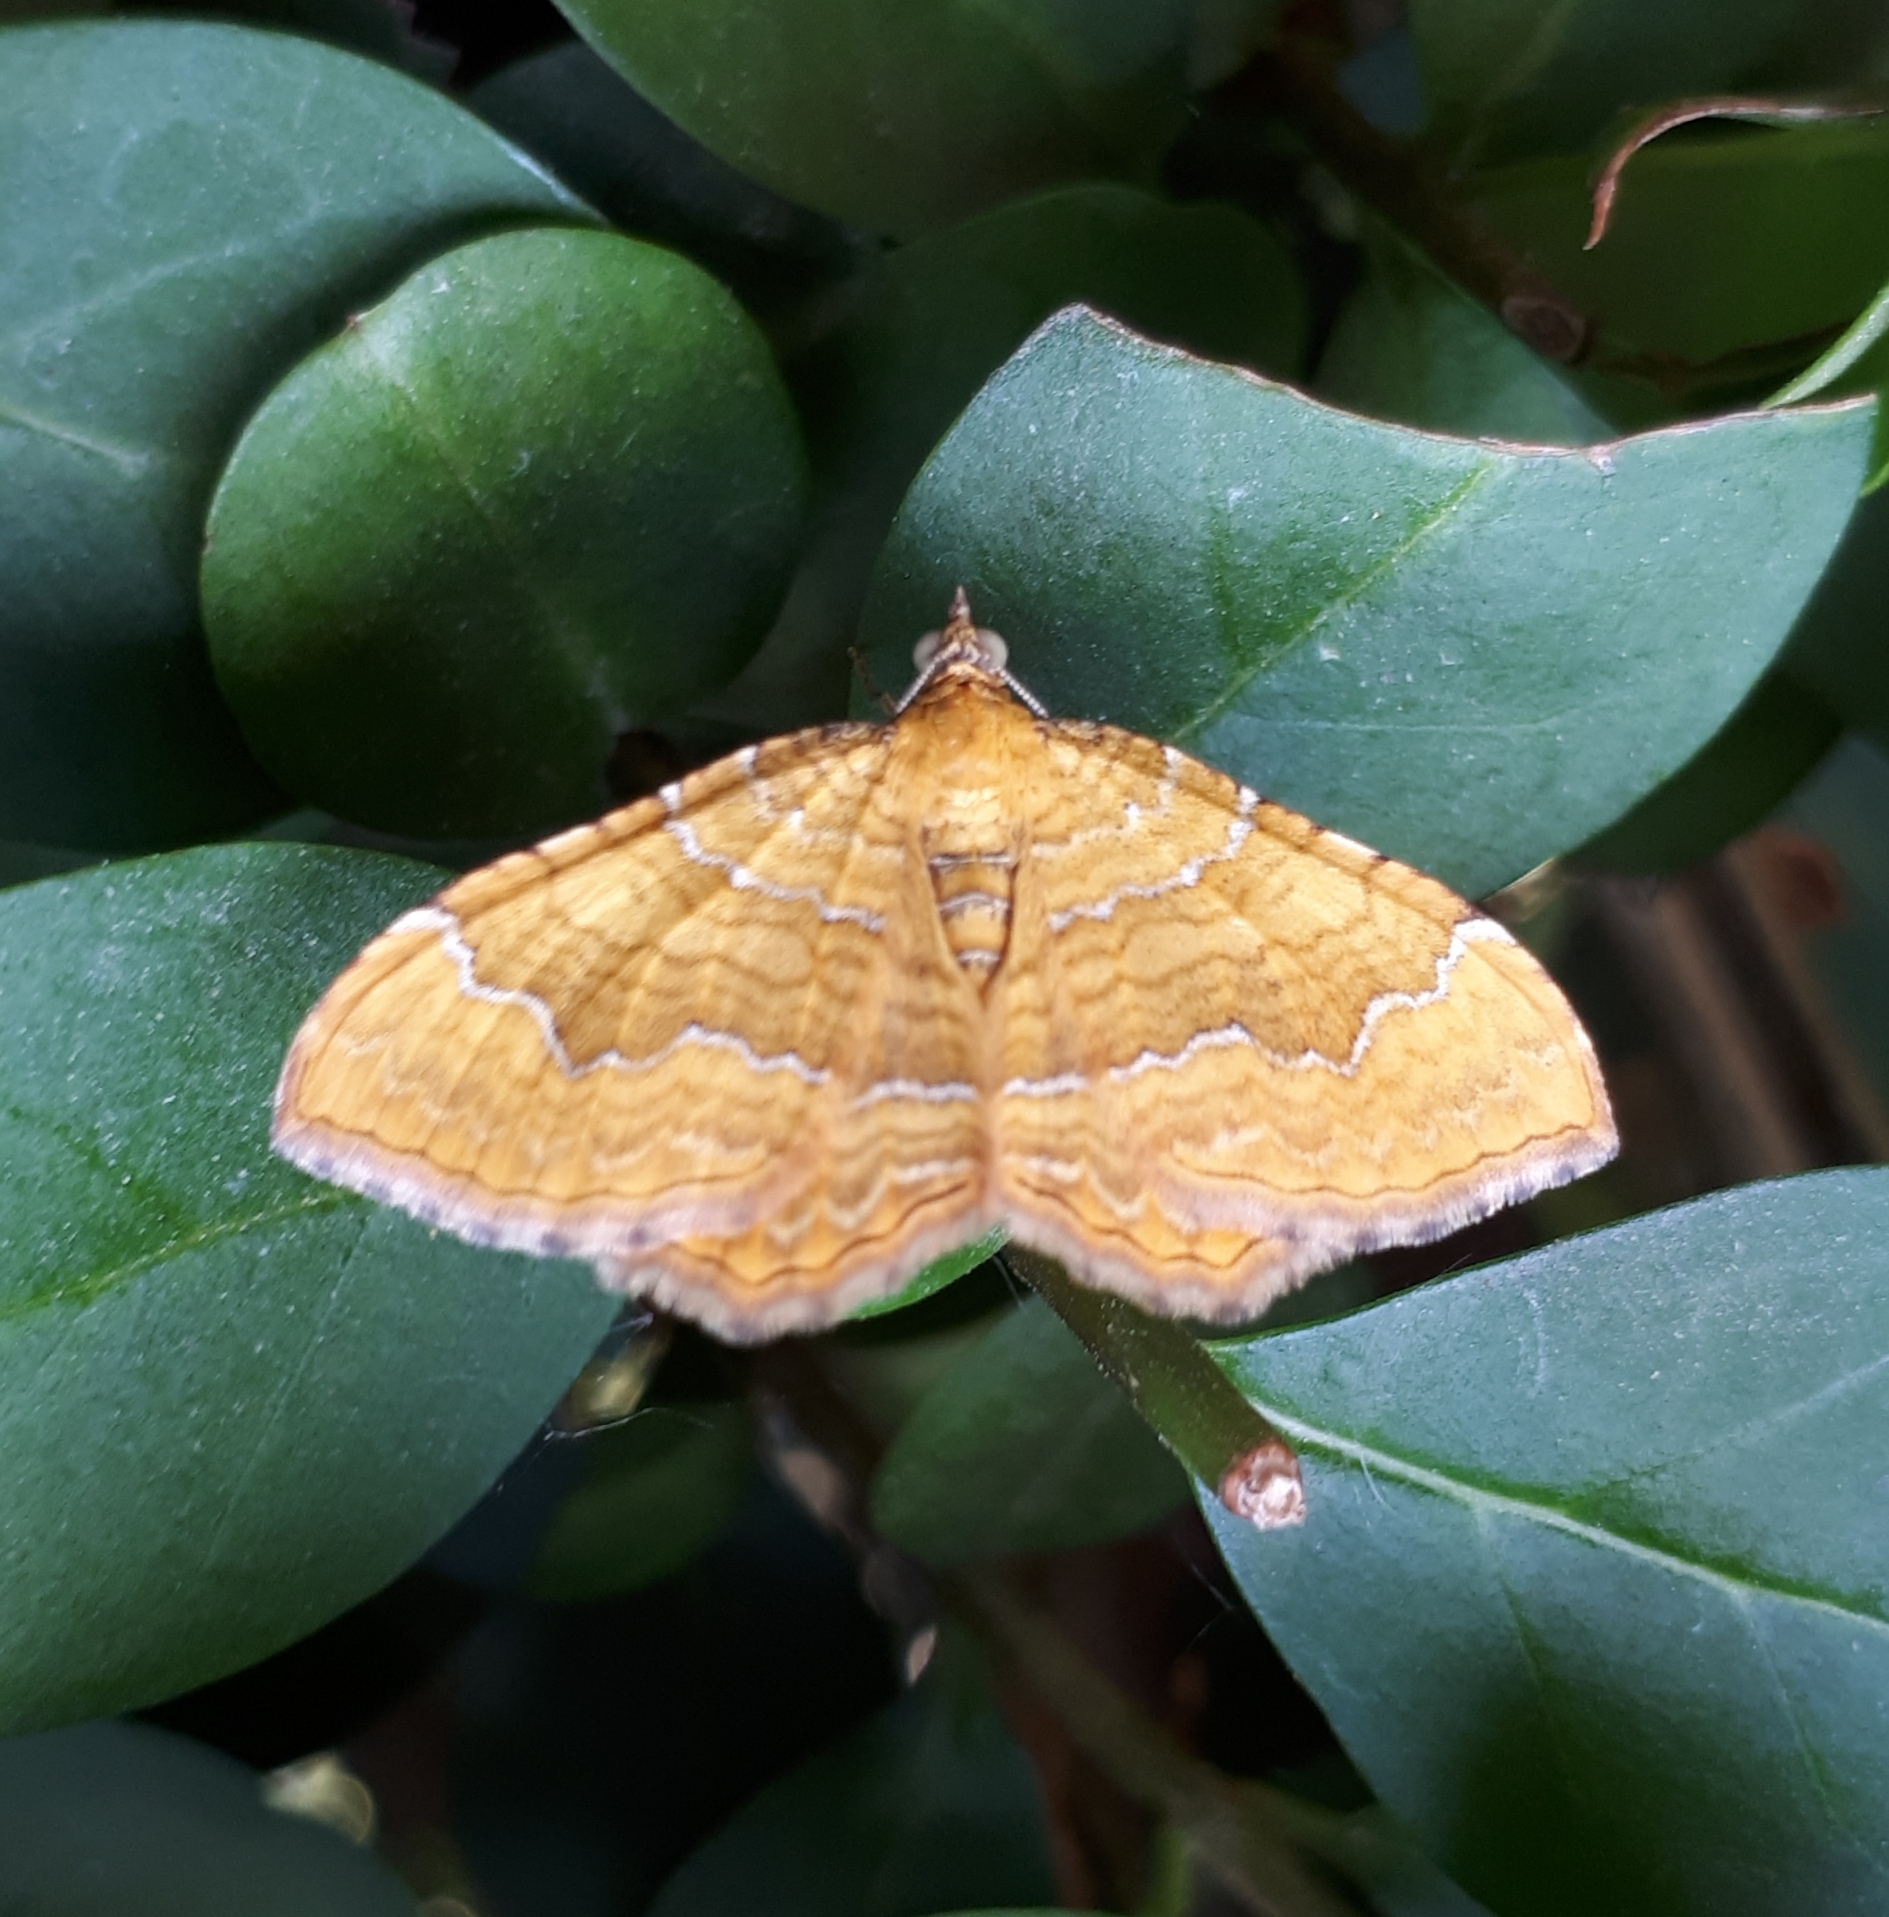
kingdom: Animalia
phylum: Arthropoda
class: Insecta
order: Lepidoptera
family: Geometridae
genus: Camptogramma
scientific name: Camptogramma bilineata
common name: Yellow shell
